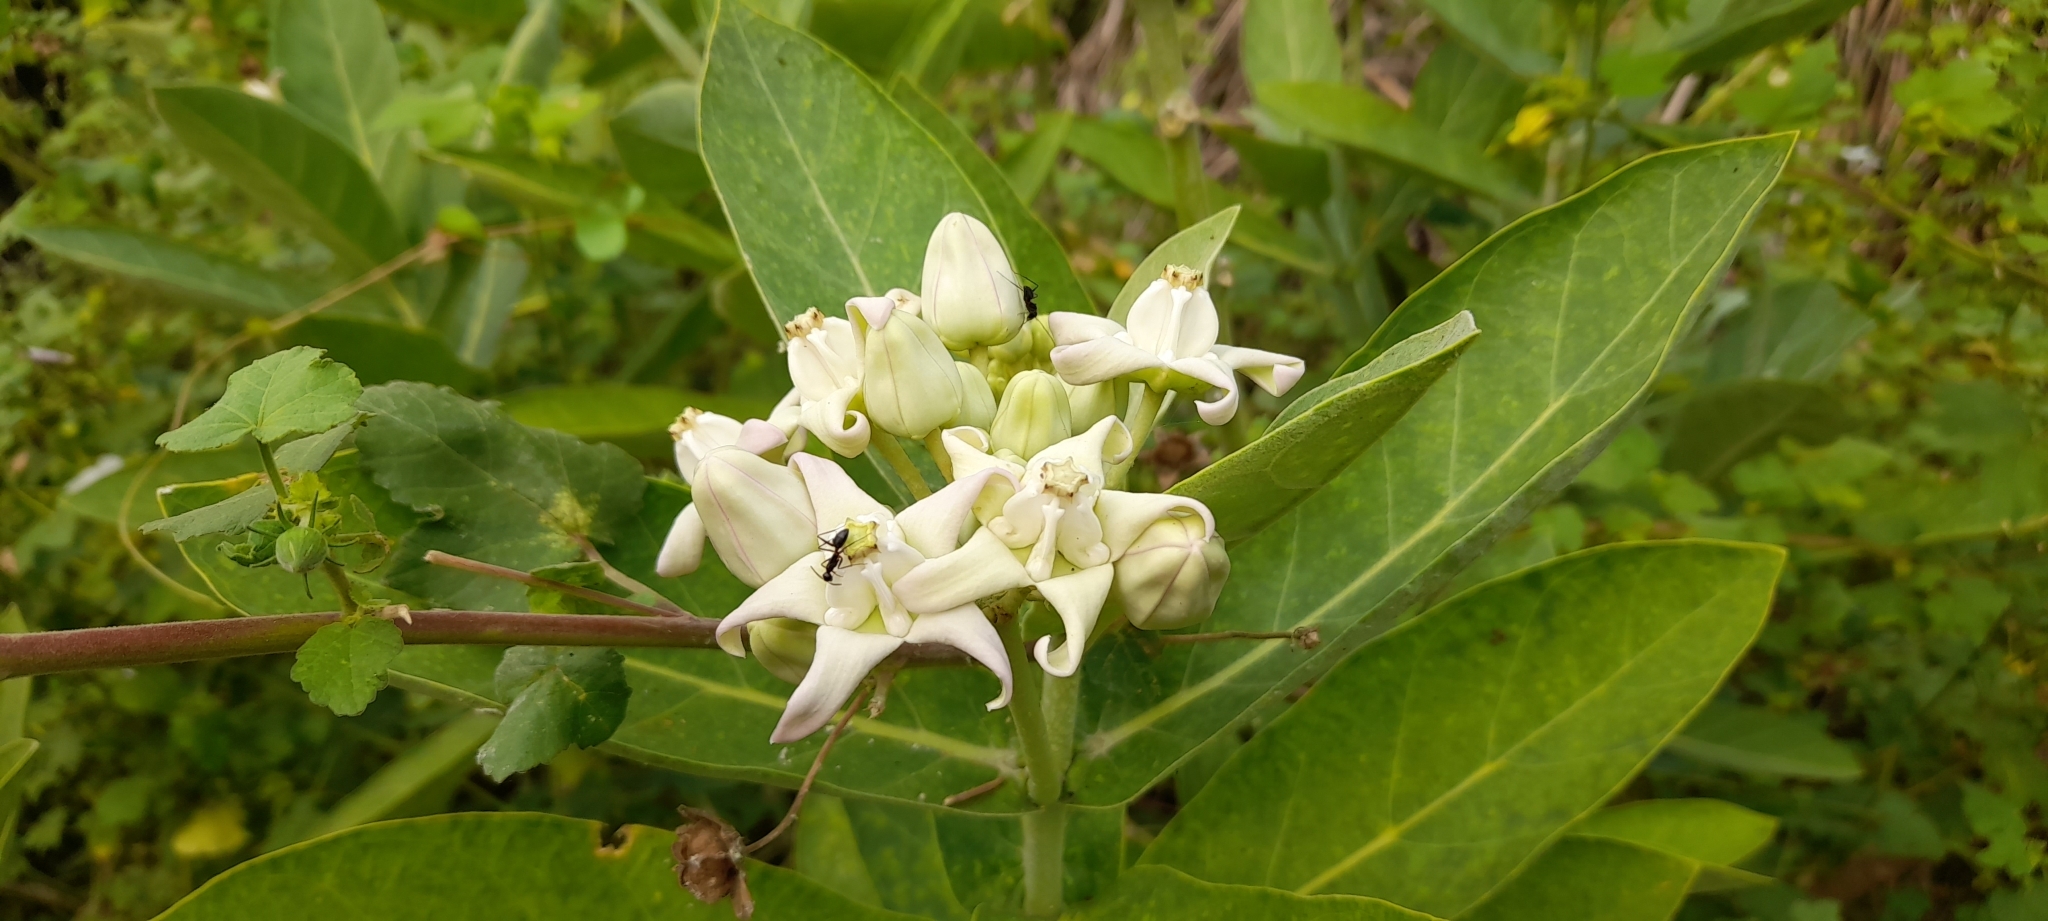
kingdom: Plantae
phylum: Tracheophyta
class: Magnoliopsida
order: Gentianales
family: Apocynaceae
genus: Calotropis
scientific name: Calotropis gigantea
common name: Crown flower
